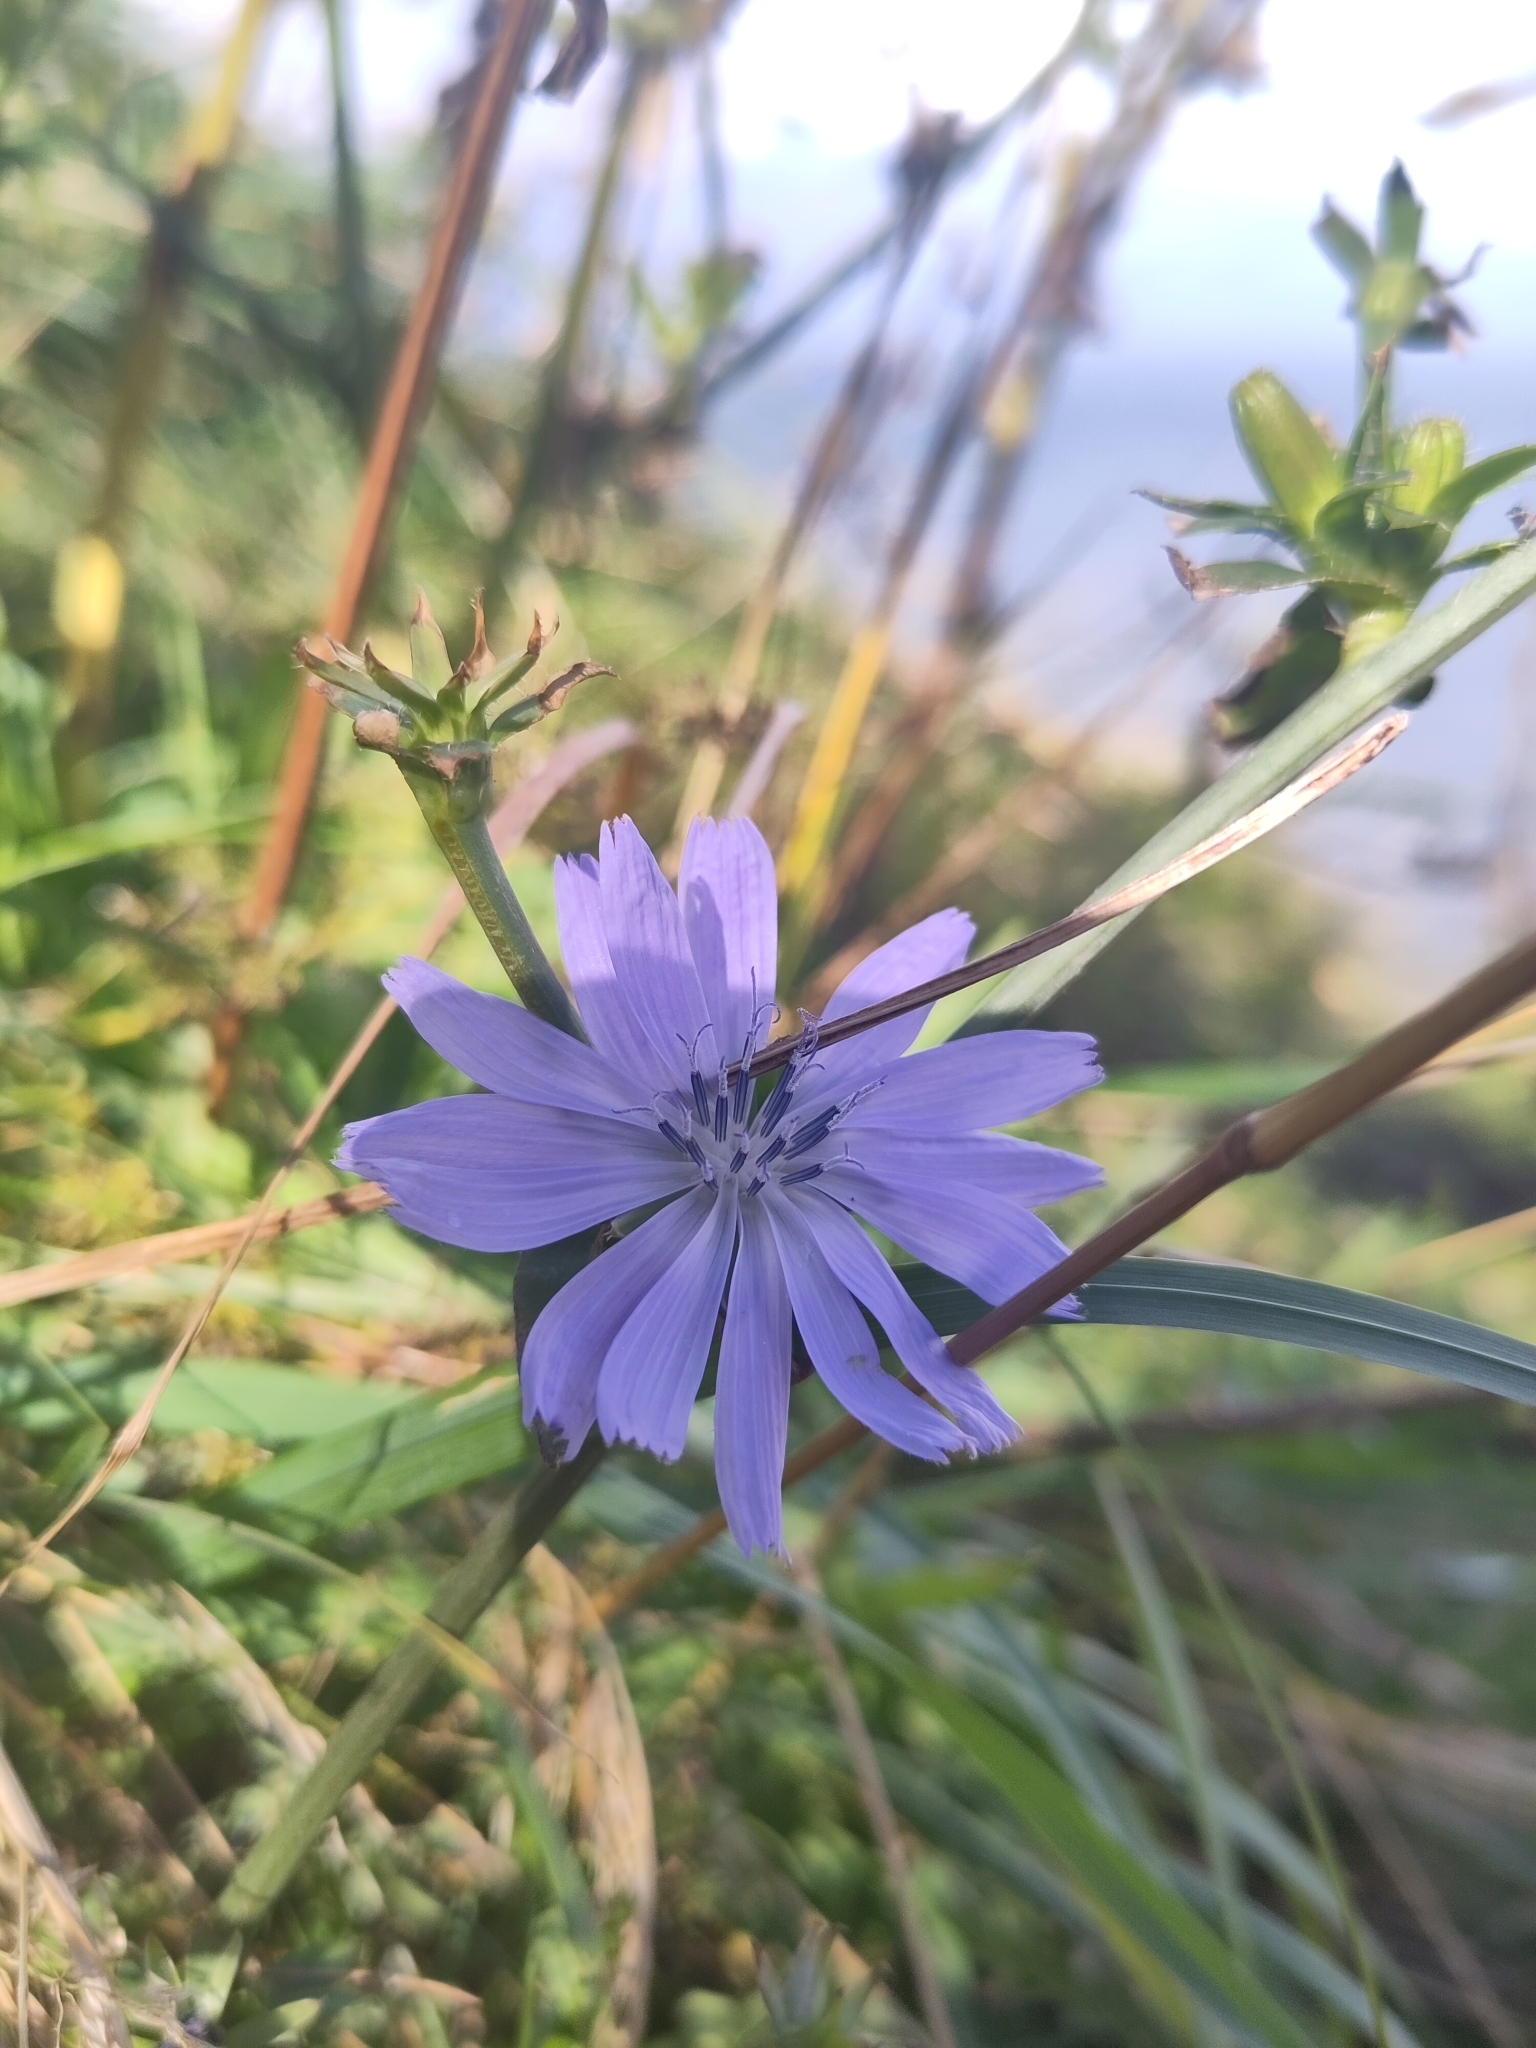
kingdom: Plantae
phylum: Tracheophyta
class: Magnoliopsida
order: Asterales
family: Asteraceae
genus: Cichorium
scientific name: Cichorium intybus
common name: Chicory
